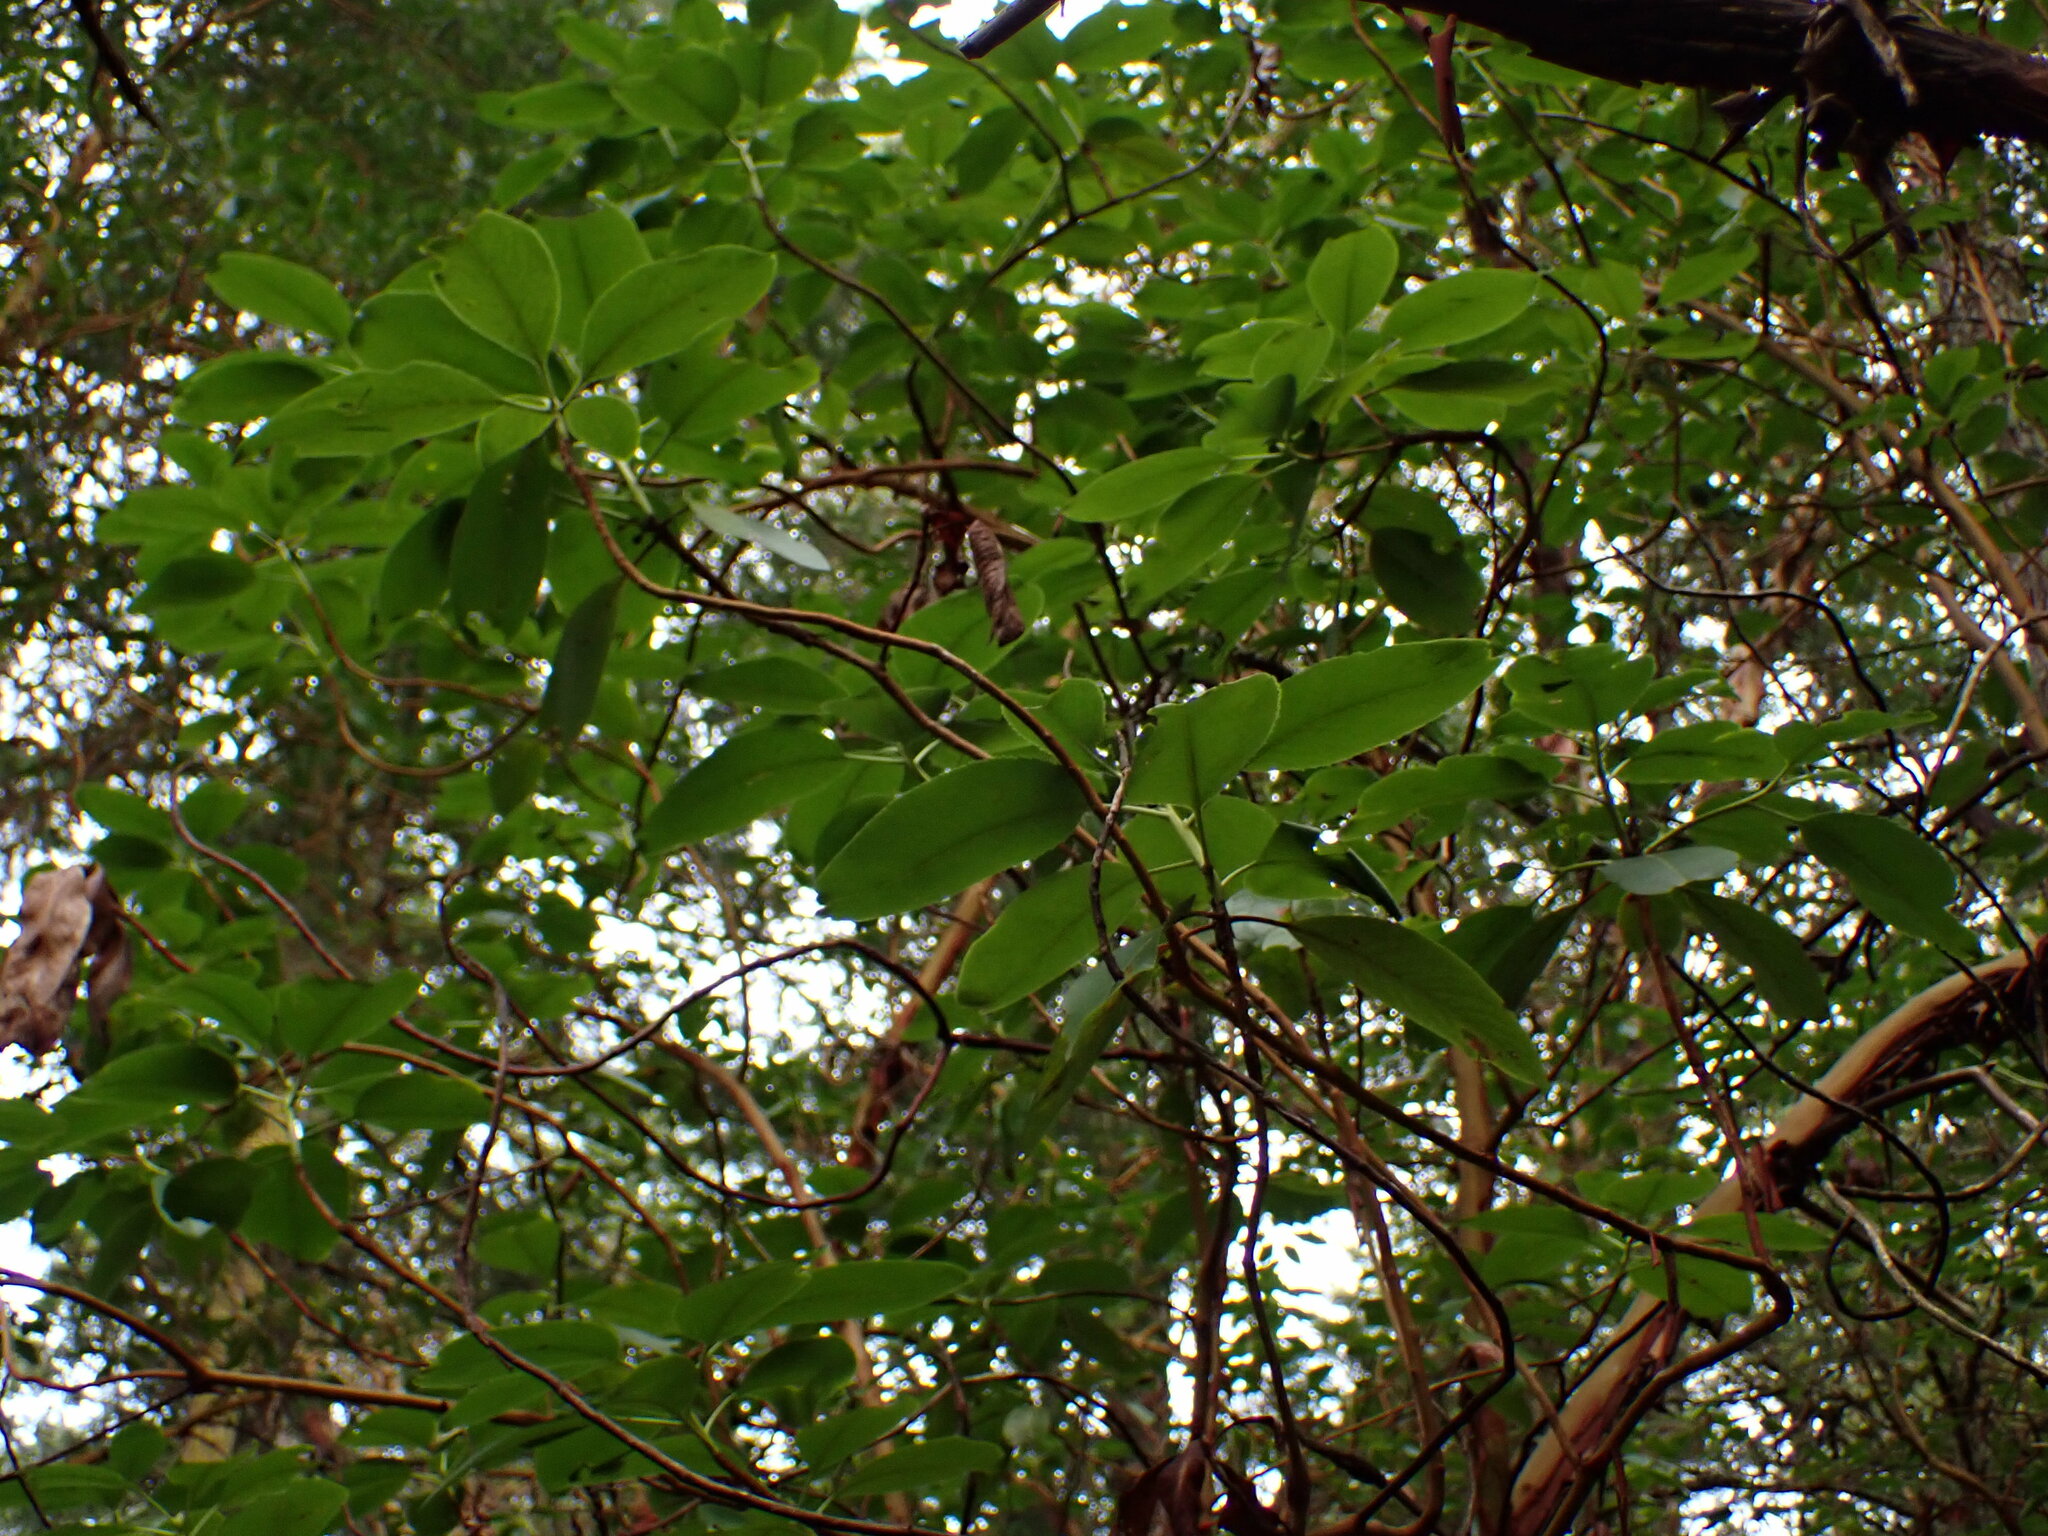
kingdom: Plantae
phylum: Tracheophyta
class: Magnoliopsida
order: Ericales
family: Ericaceae
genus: Arbutus
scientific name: Arbutus menziesii
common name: Pacific madrone
